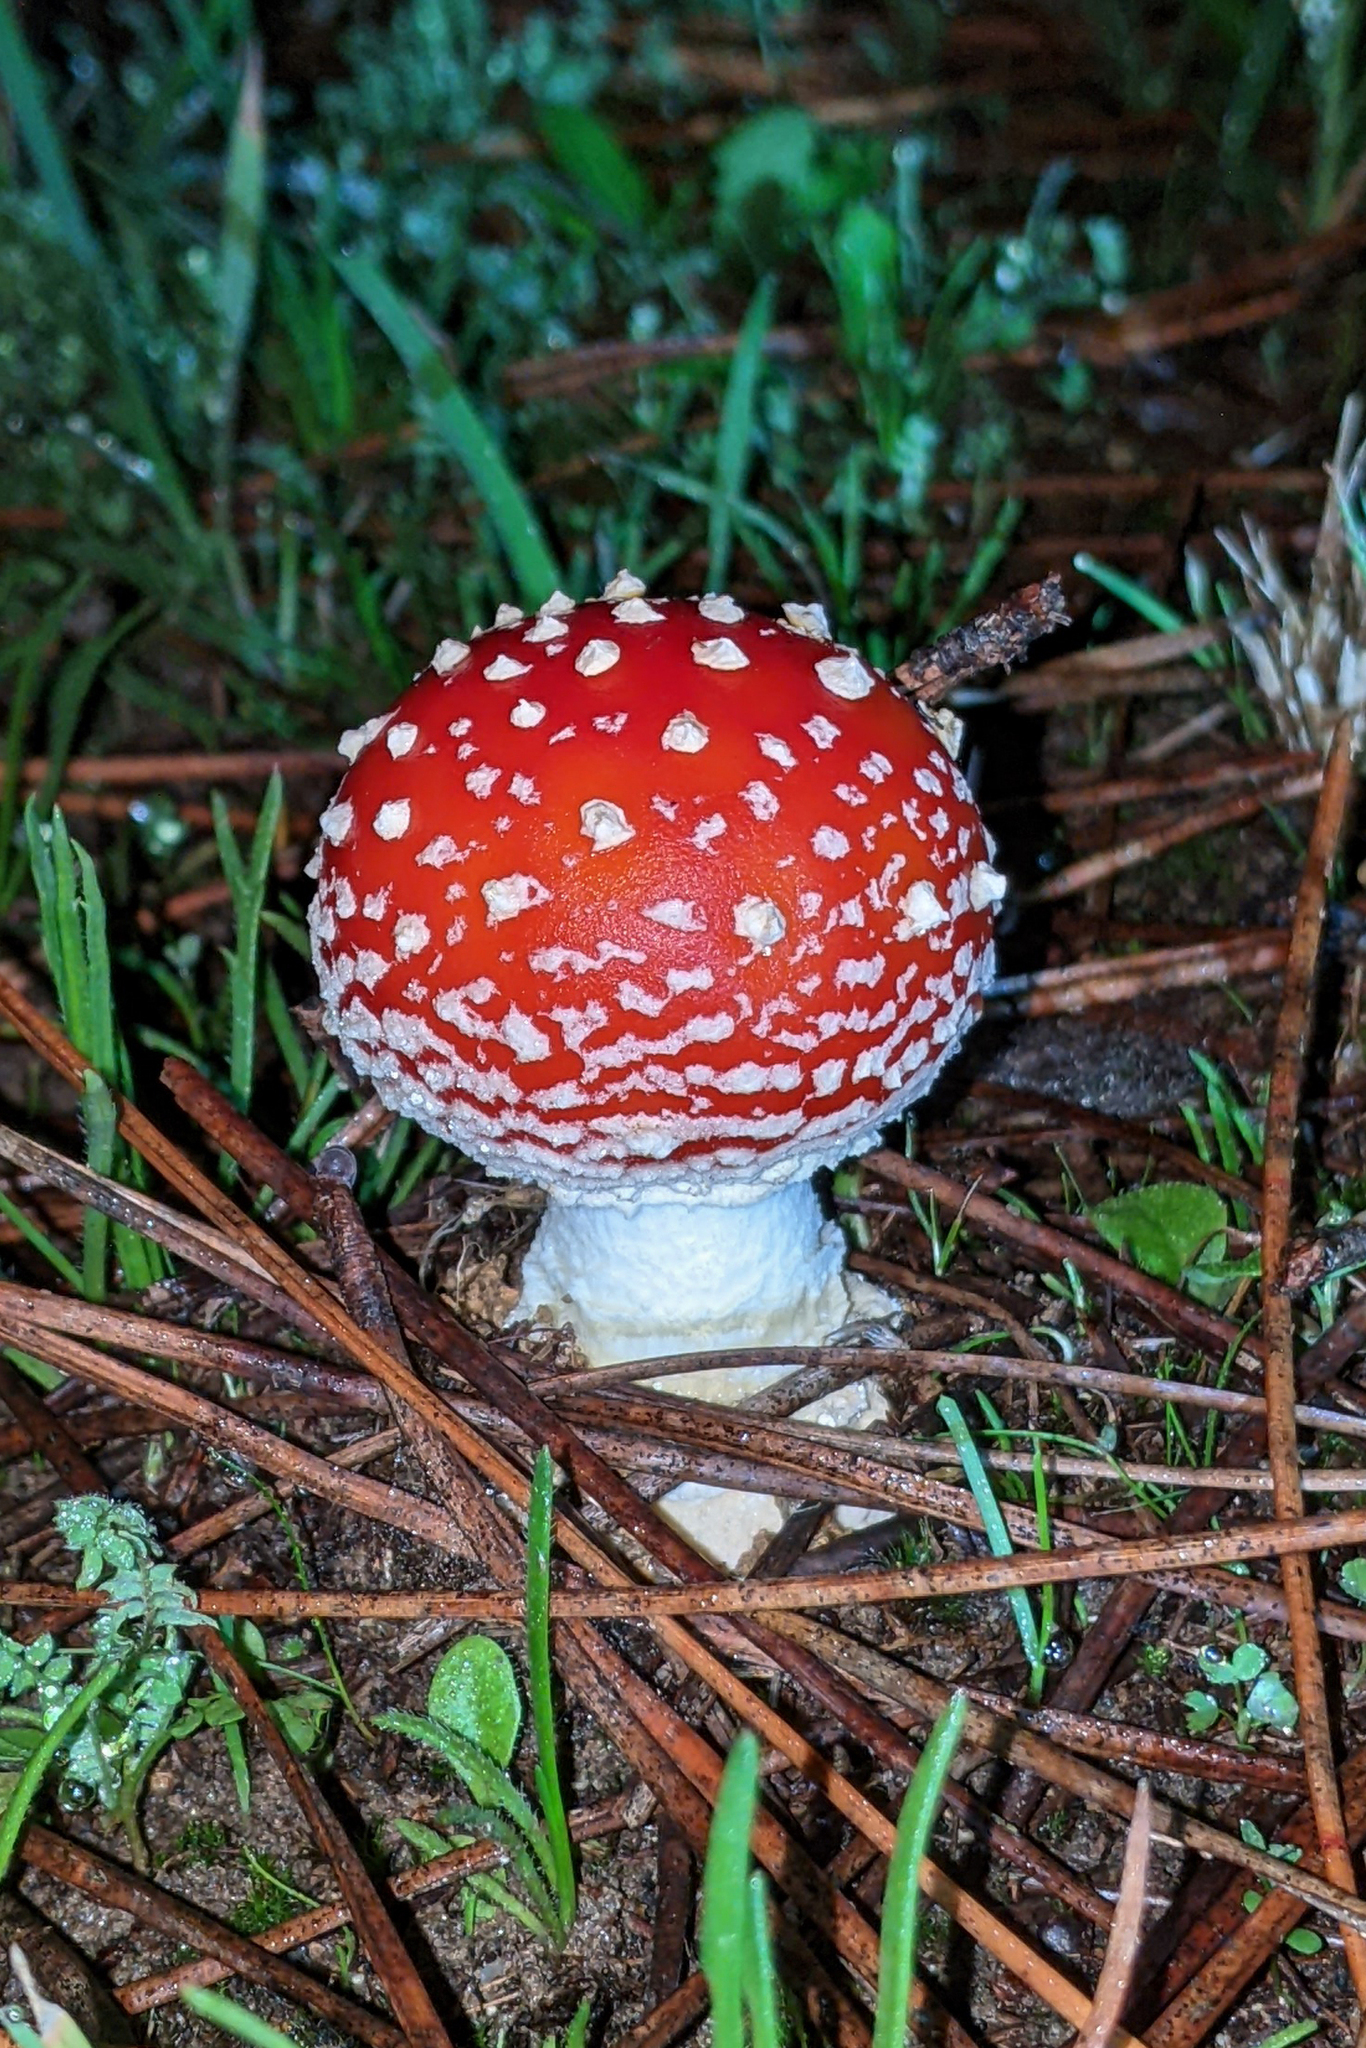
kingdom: Fungi
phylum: Basidiomycota
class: Agaricomycetes
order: Agaricales
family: Amanitaceae
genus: Amanita
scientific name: Amanita muscaria
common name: Fly agaric
